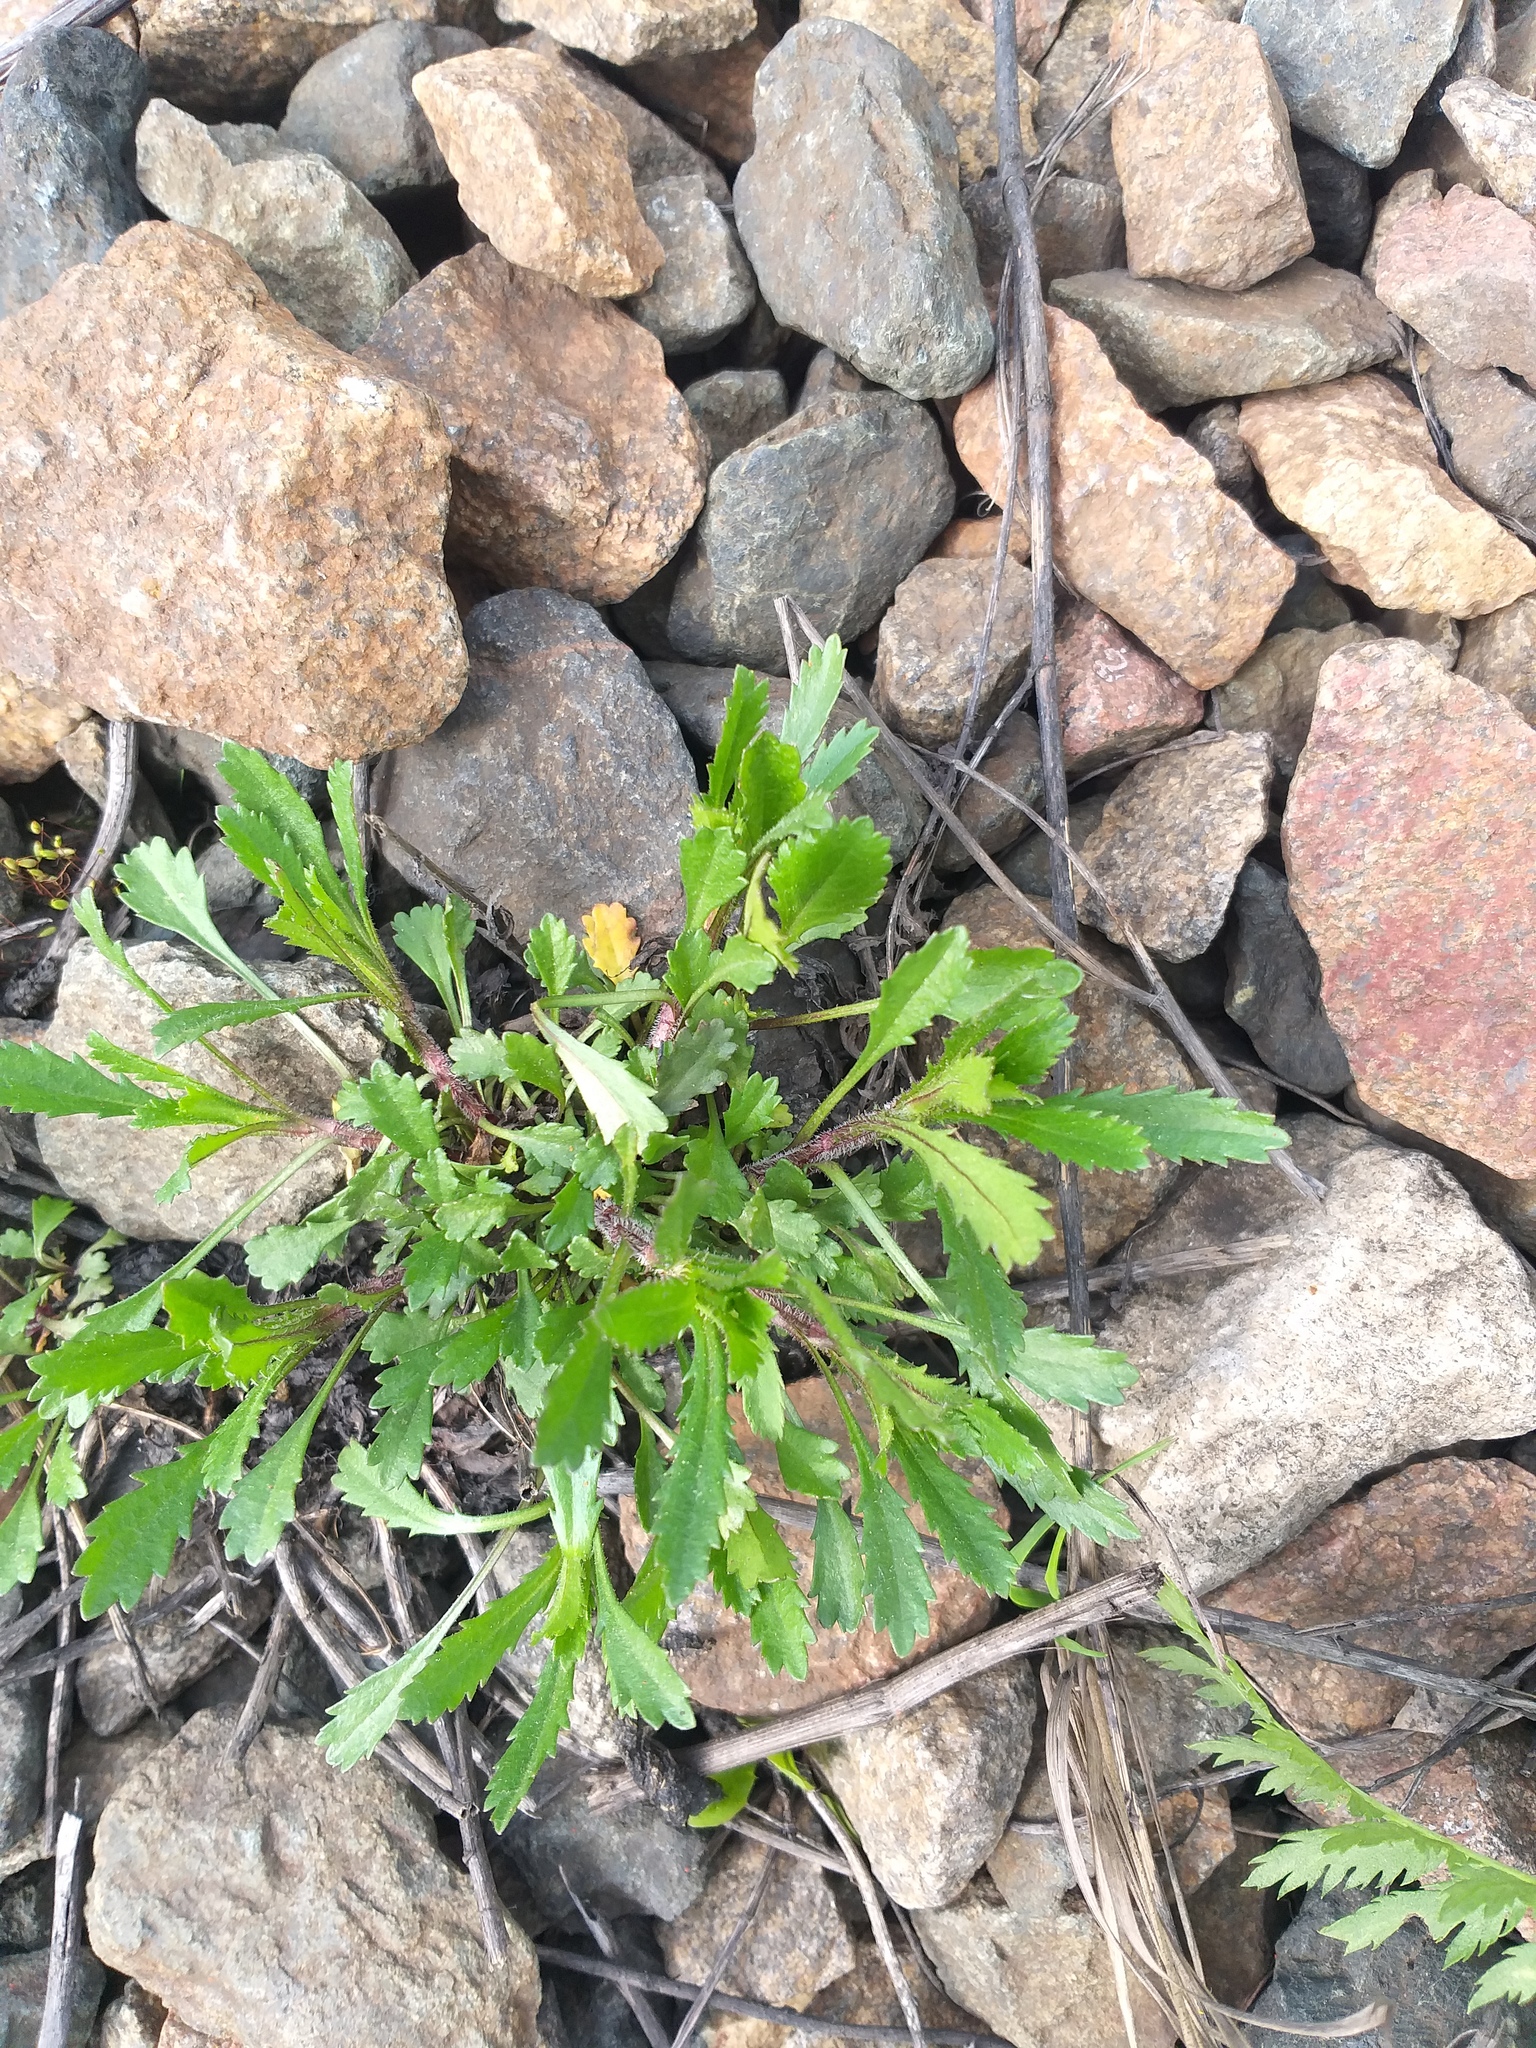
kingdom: Plantae
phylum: Tracheophyta
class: Magnoliopsida
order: Asterales
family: Asteraceae
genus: Leucanthemum
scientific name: Leucanthemum vulgare
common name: Oxeye daisy
